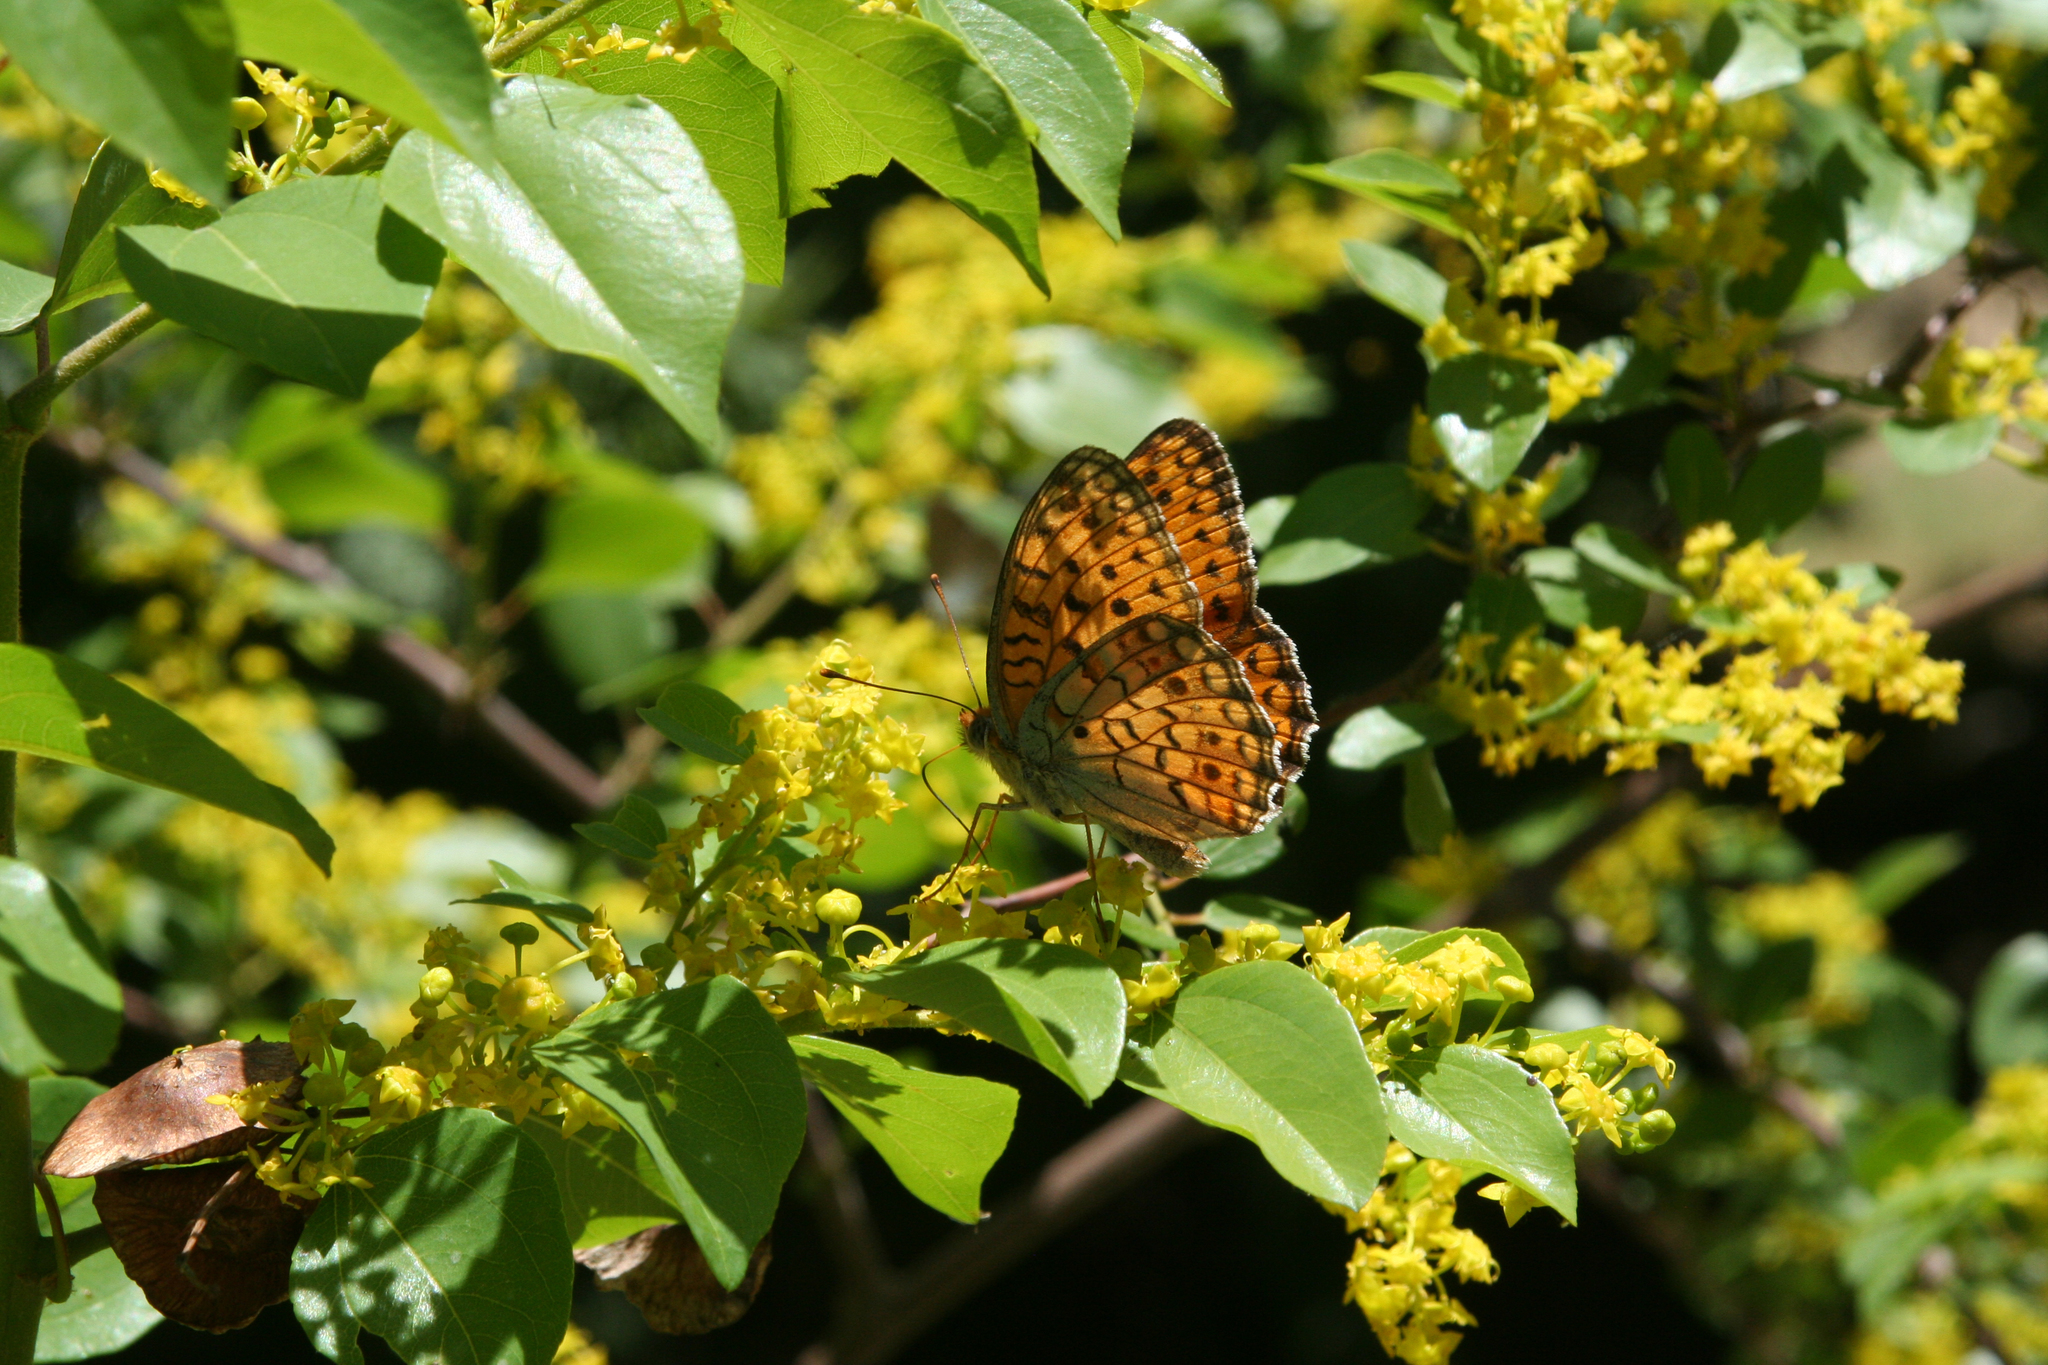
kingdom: Plantae
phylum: Tracheophyta
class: Magnoliopsida
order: Rosales
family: Rhamnaceae
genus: Paliurus
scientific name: Paliurus spina-christi
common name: Jeruselem thorn
